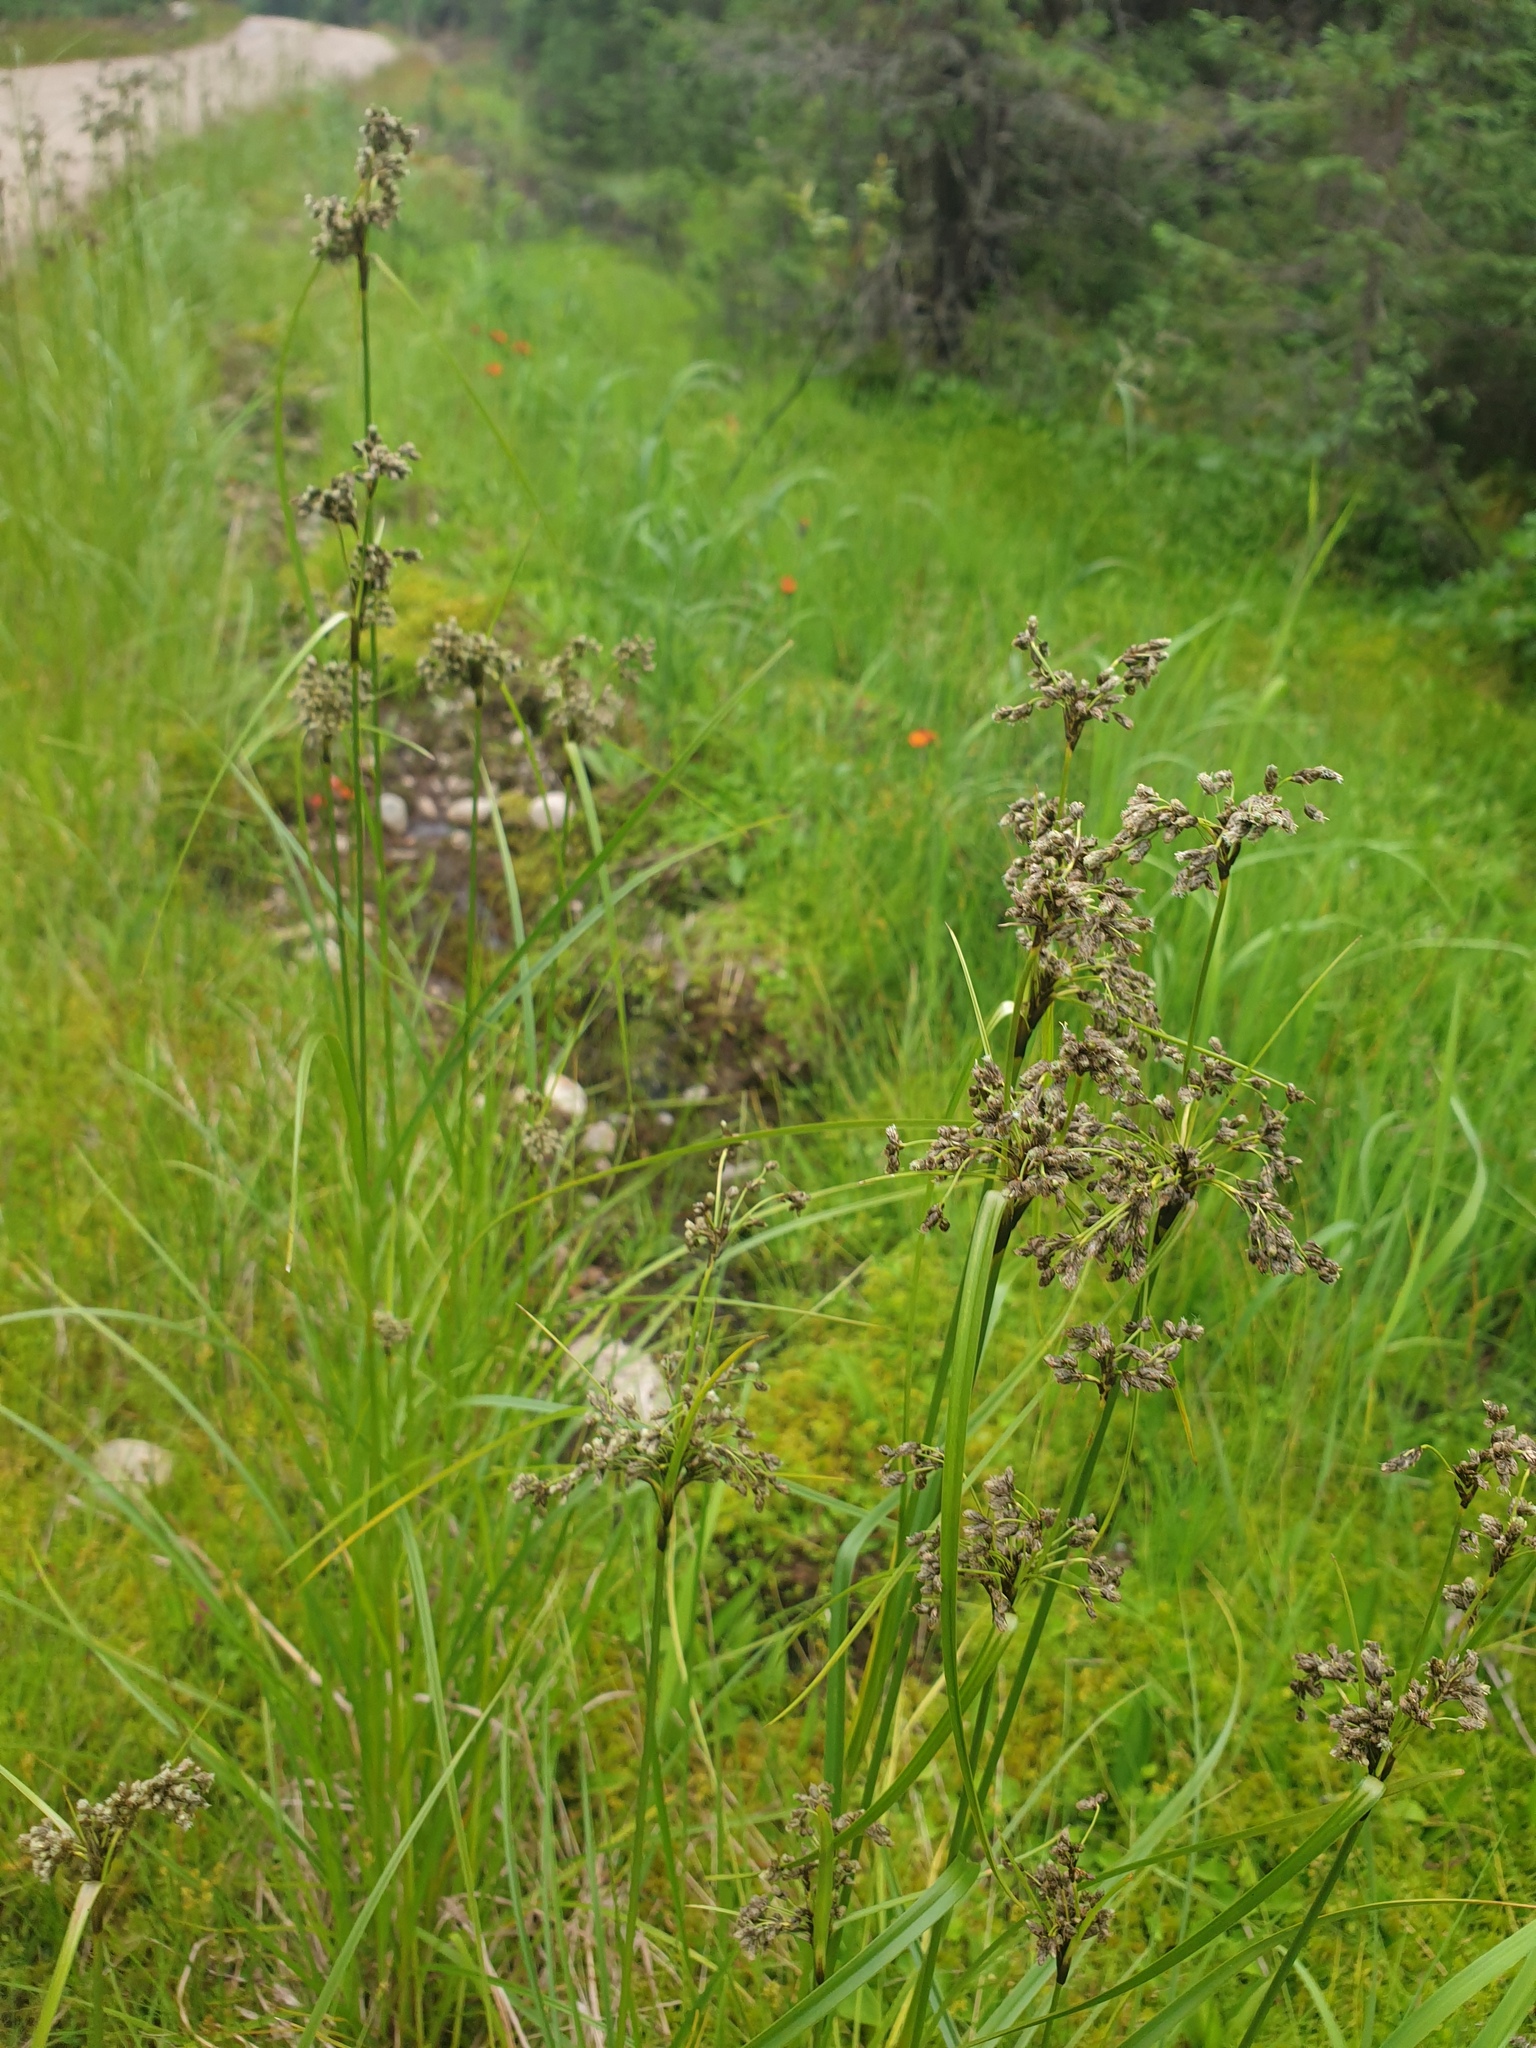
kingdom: Plantae
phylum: Tracheophyta
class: Liliopsida
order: Poales
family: Cyperaceae
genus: Scirpus
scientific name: Scirpus atrocinctus
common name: Black-girdled bulrush
